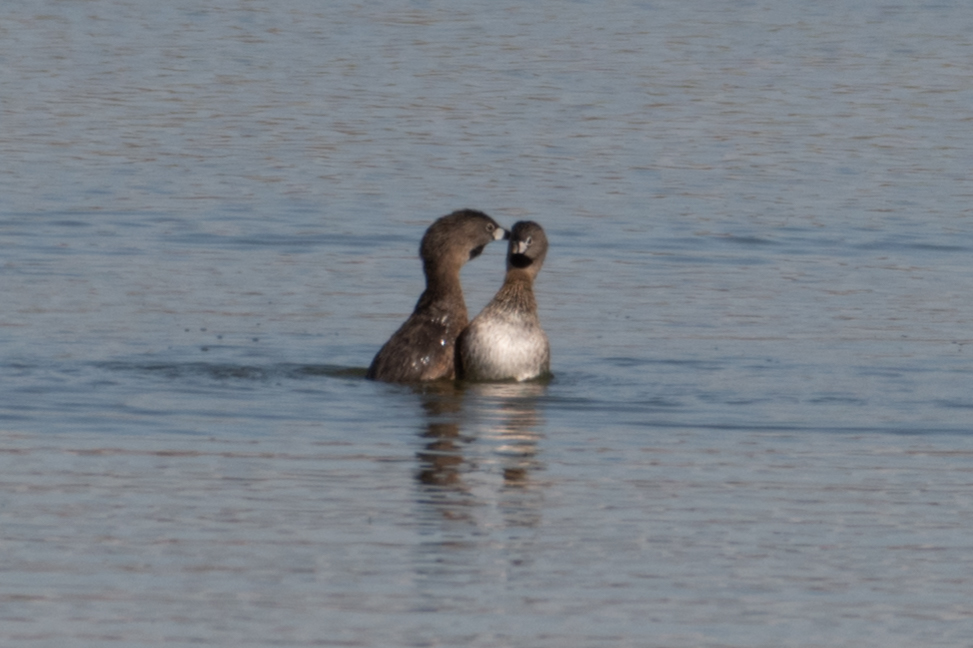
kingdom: Animalia
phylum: Chordata
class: Aves
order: Podicipediformes
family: Podicipedidae
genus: Podilymbus
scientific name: Podilymbus podiceps
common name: Pied-billed grebe
